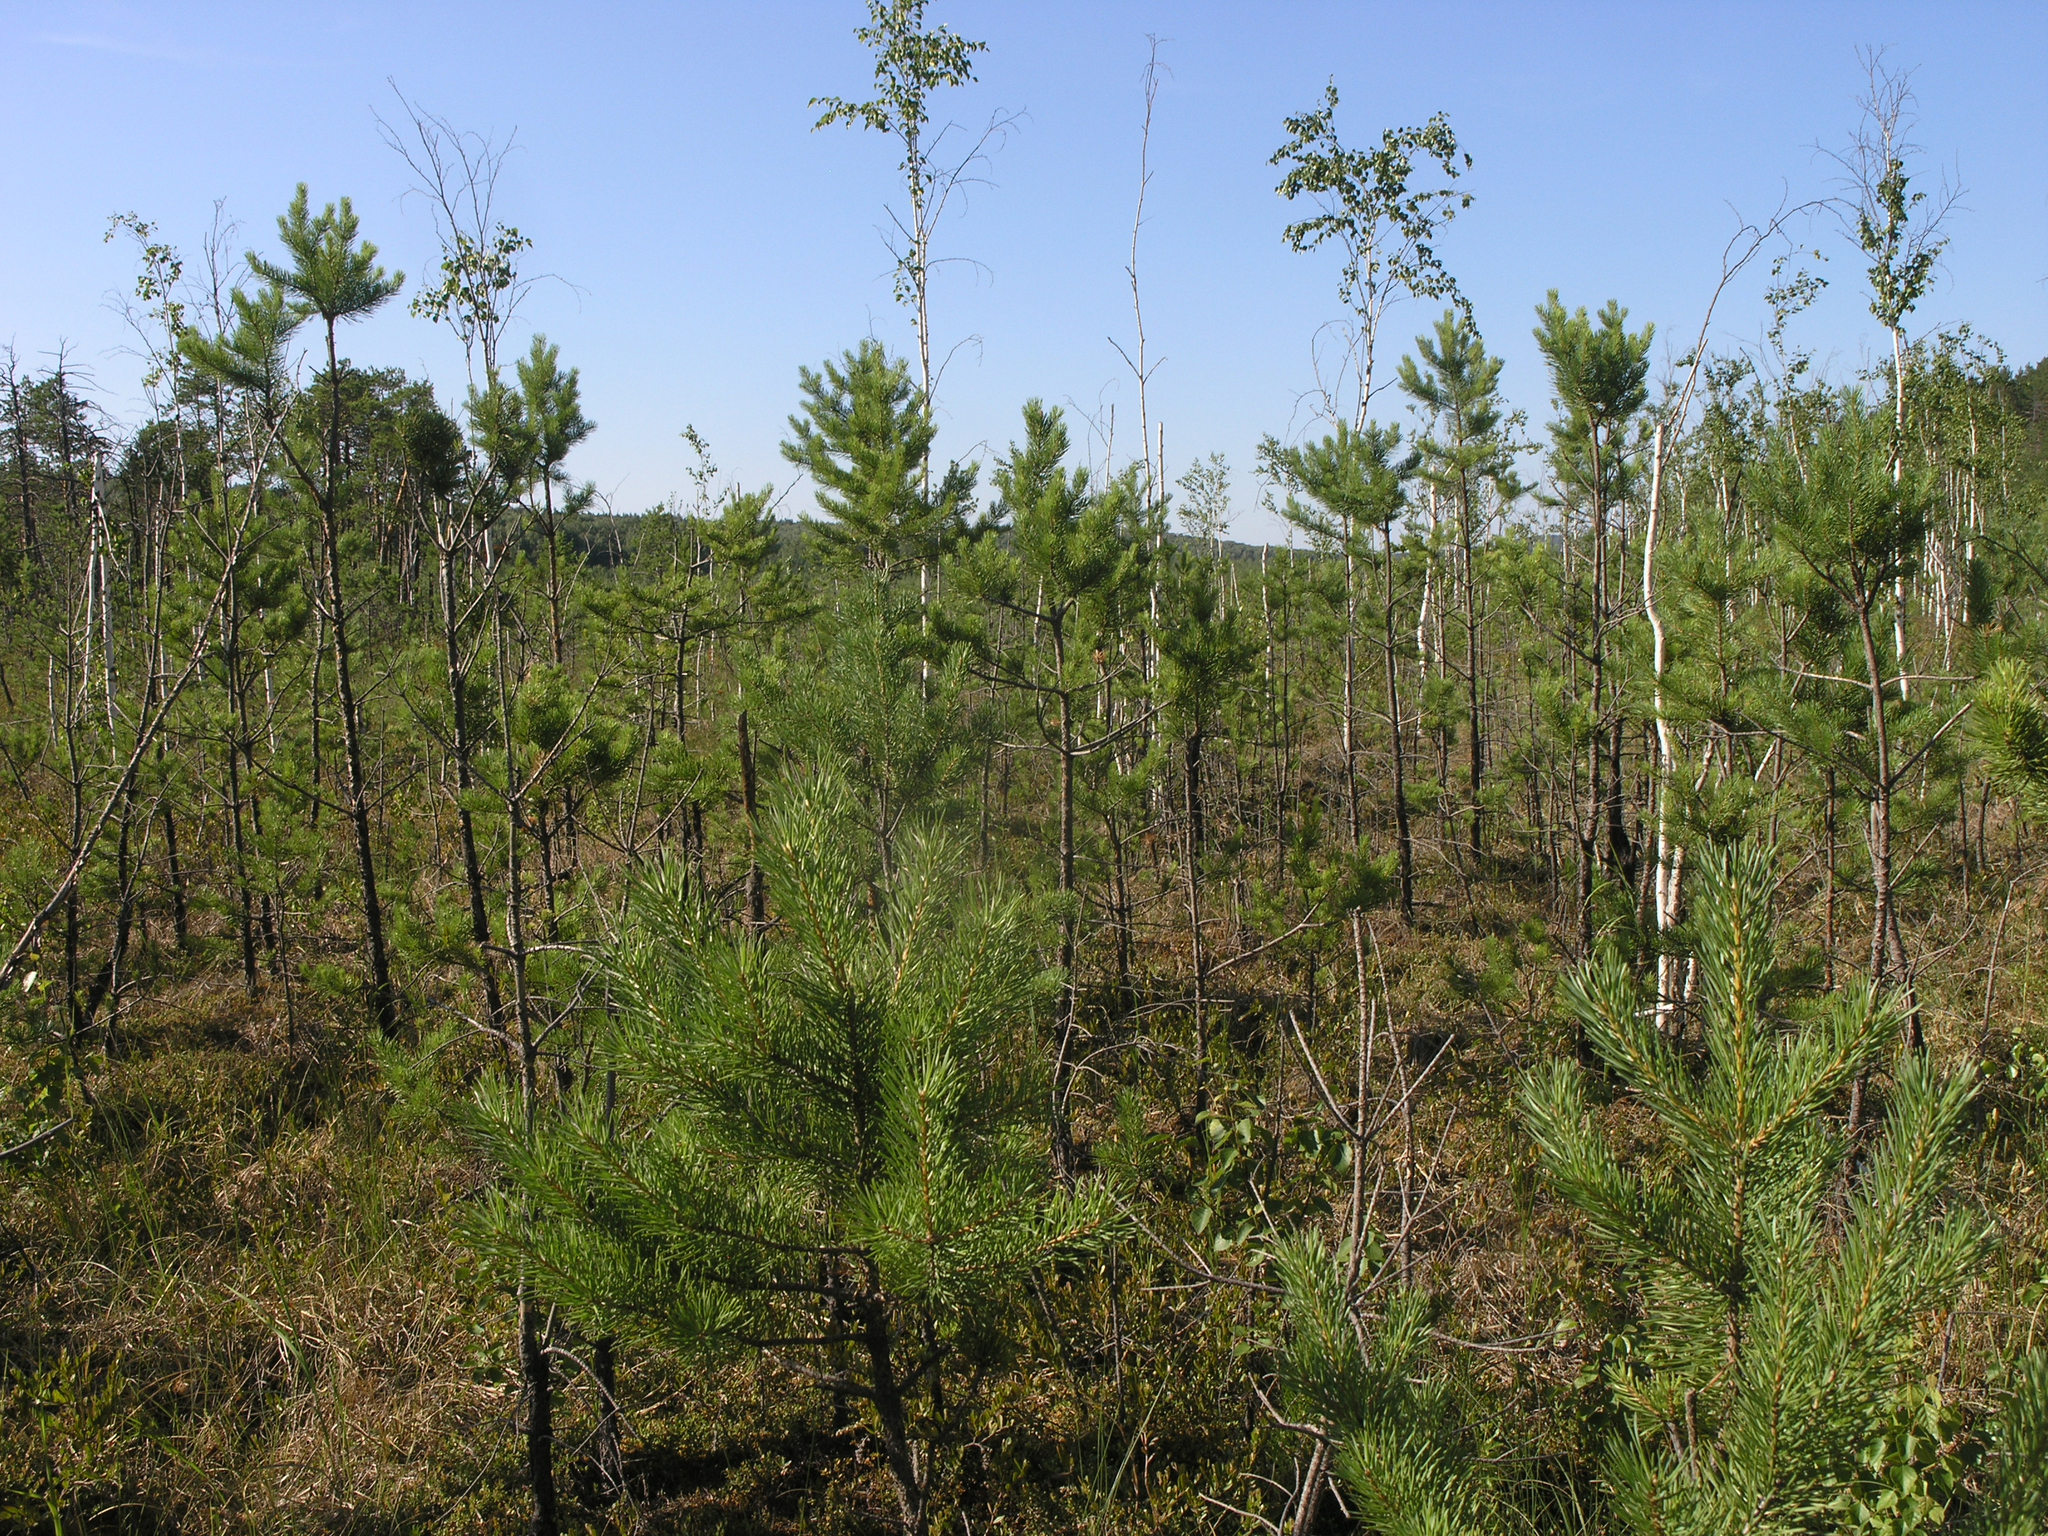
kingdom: Plantae
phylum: Tracheophyta
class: Pinopsida
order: Pinales
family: Pinaceae
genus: Pinus
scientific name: Pinus sylvestris
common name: Scots pine
